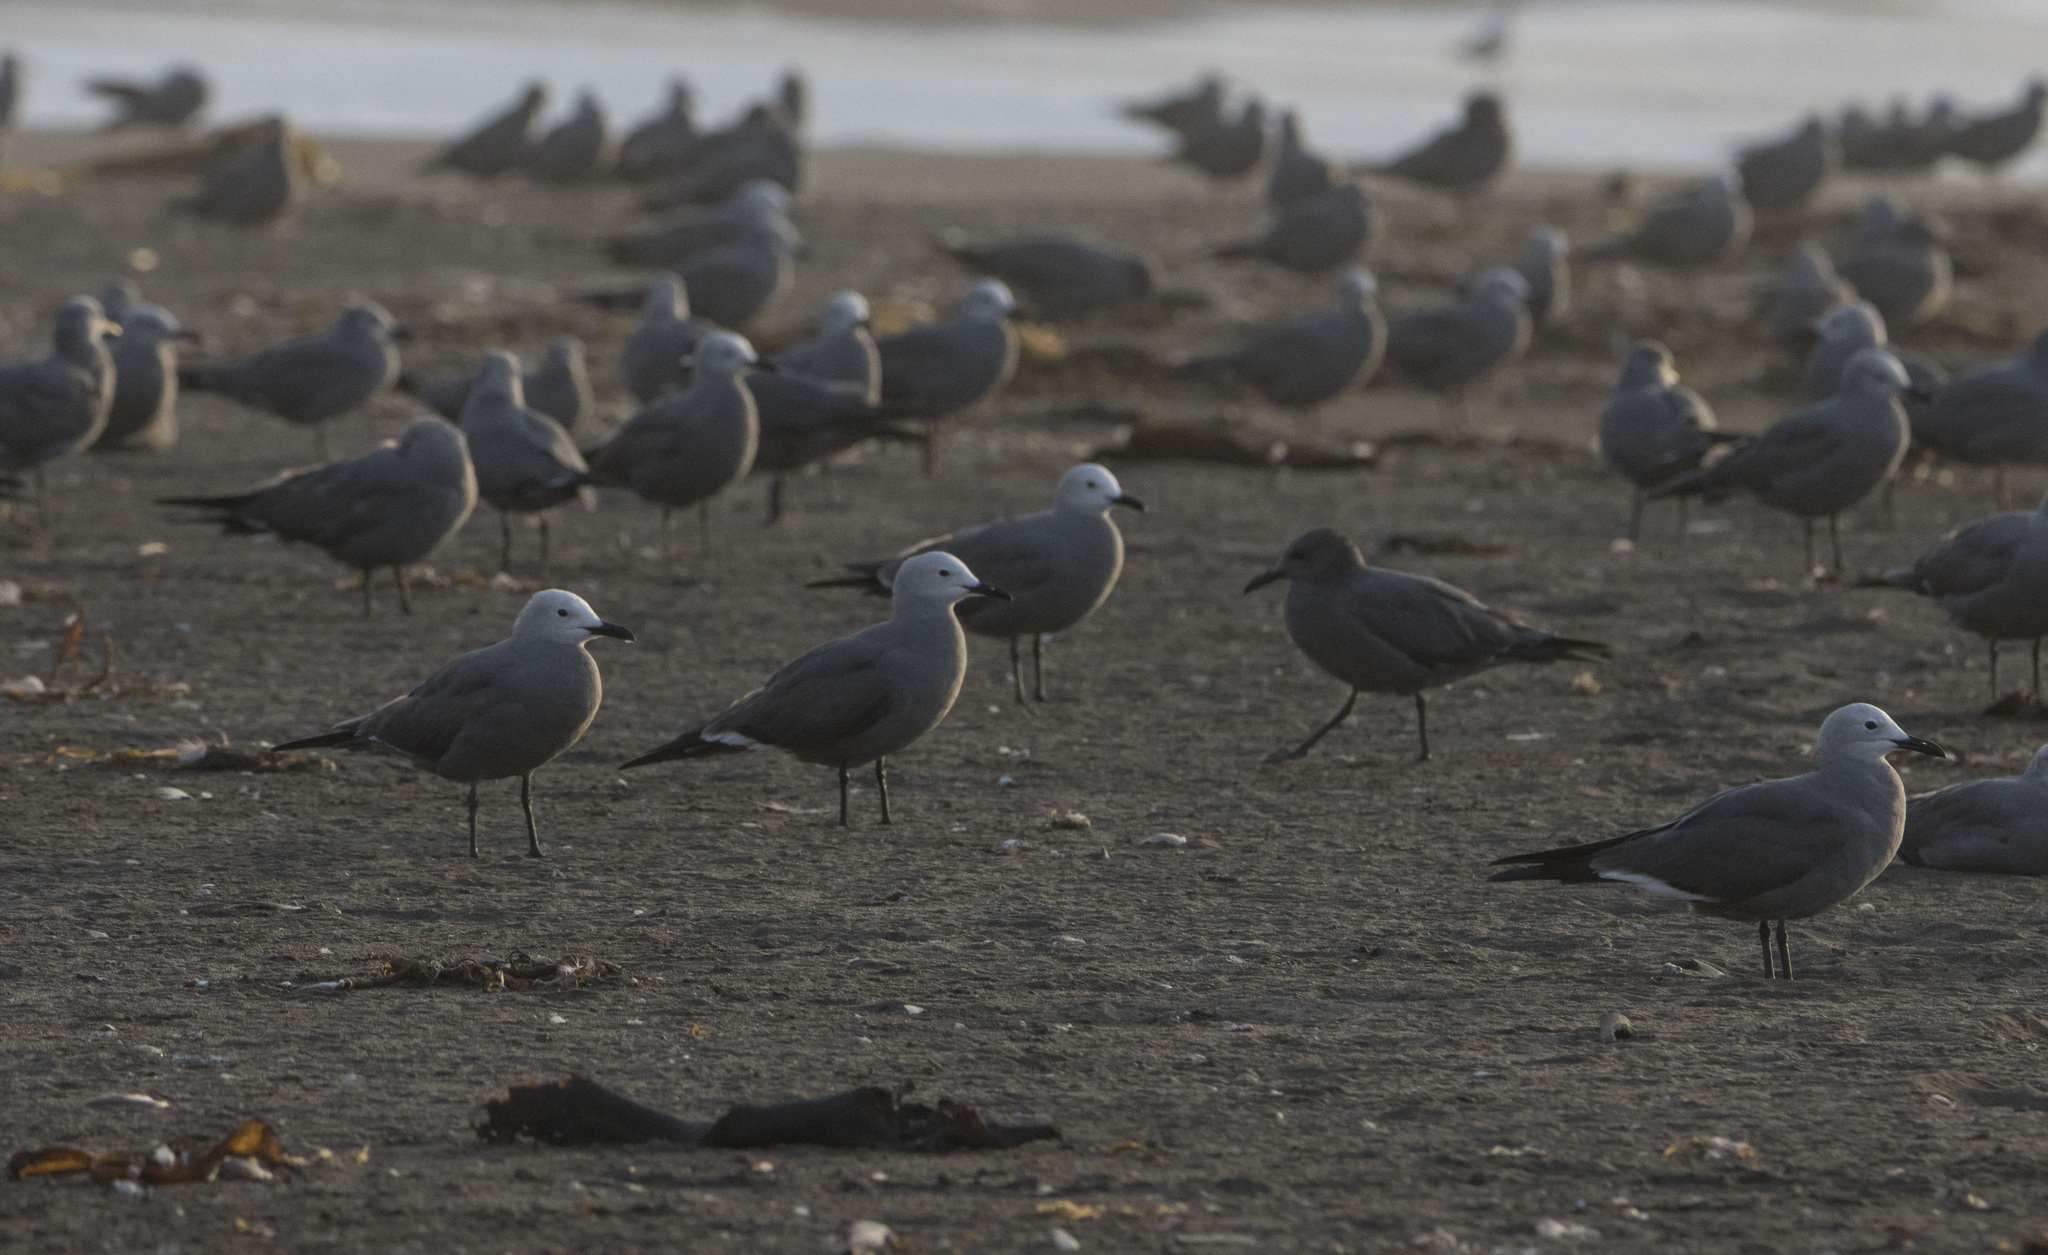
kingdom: Animalia
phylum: Chordata
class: Aves
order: Charadriiformes
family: Laridae
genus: Leucophaeus
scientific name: Leucophaeus modestus
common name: Gray gull
